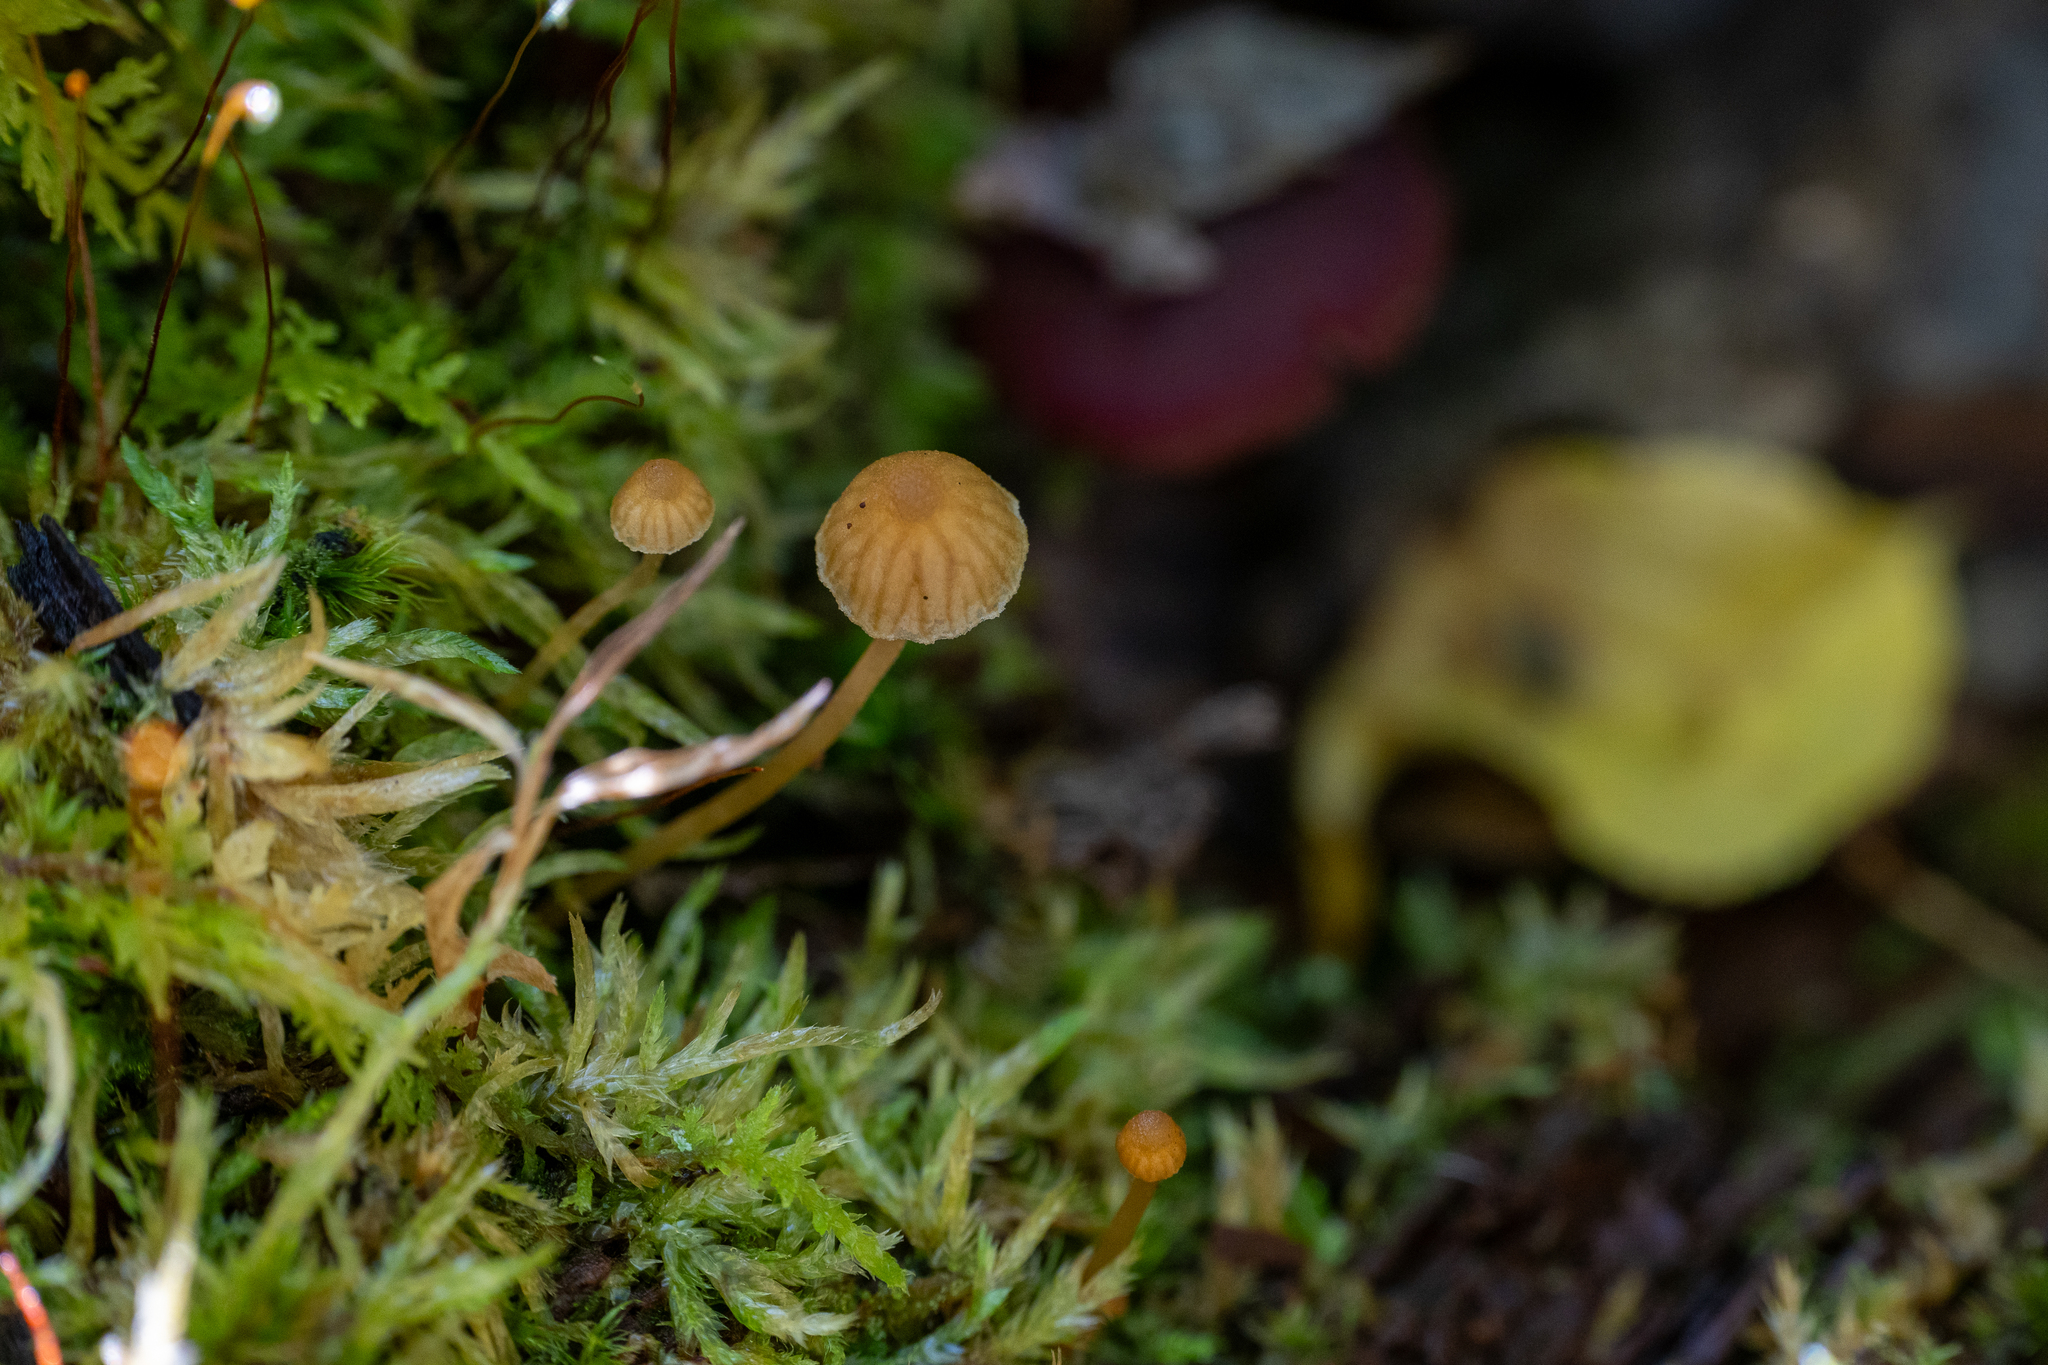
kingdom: Fungi
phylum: Basidiomycota
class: Agaricomycetes
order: Agaricales
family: Hymenogastraceae
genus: Galerina
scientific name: Galerina hypnorum
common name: Moss bell
